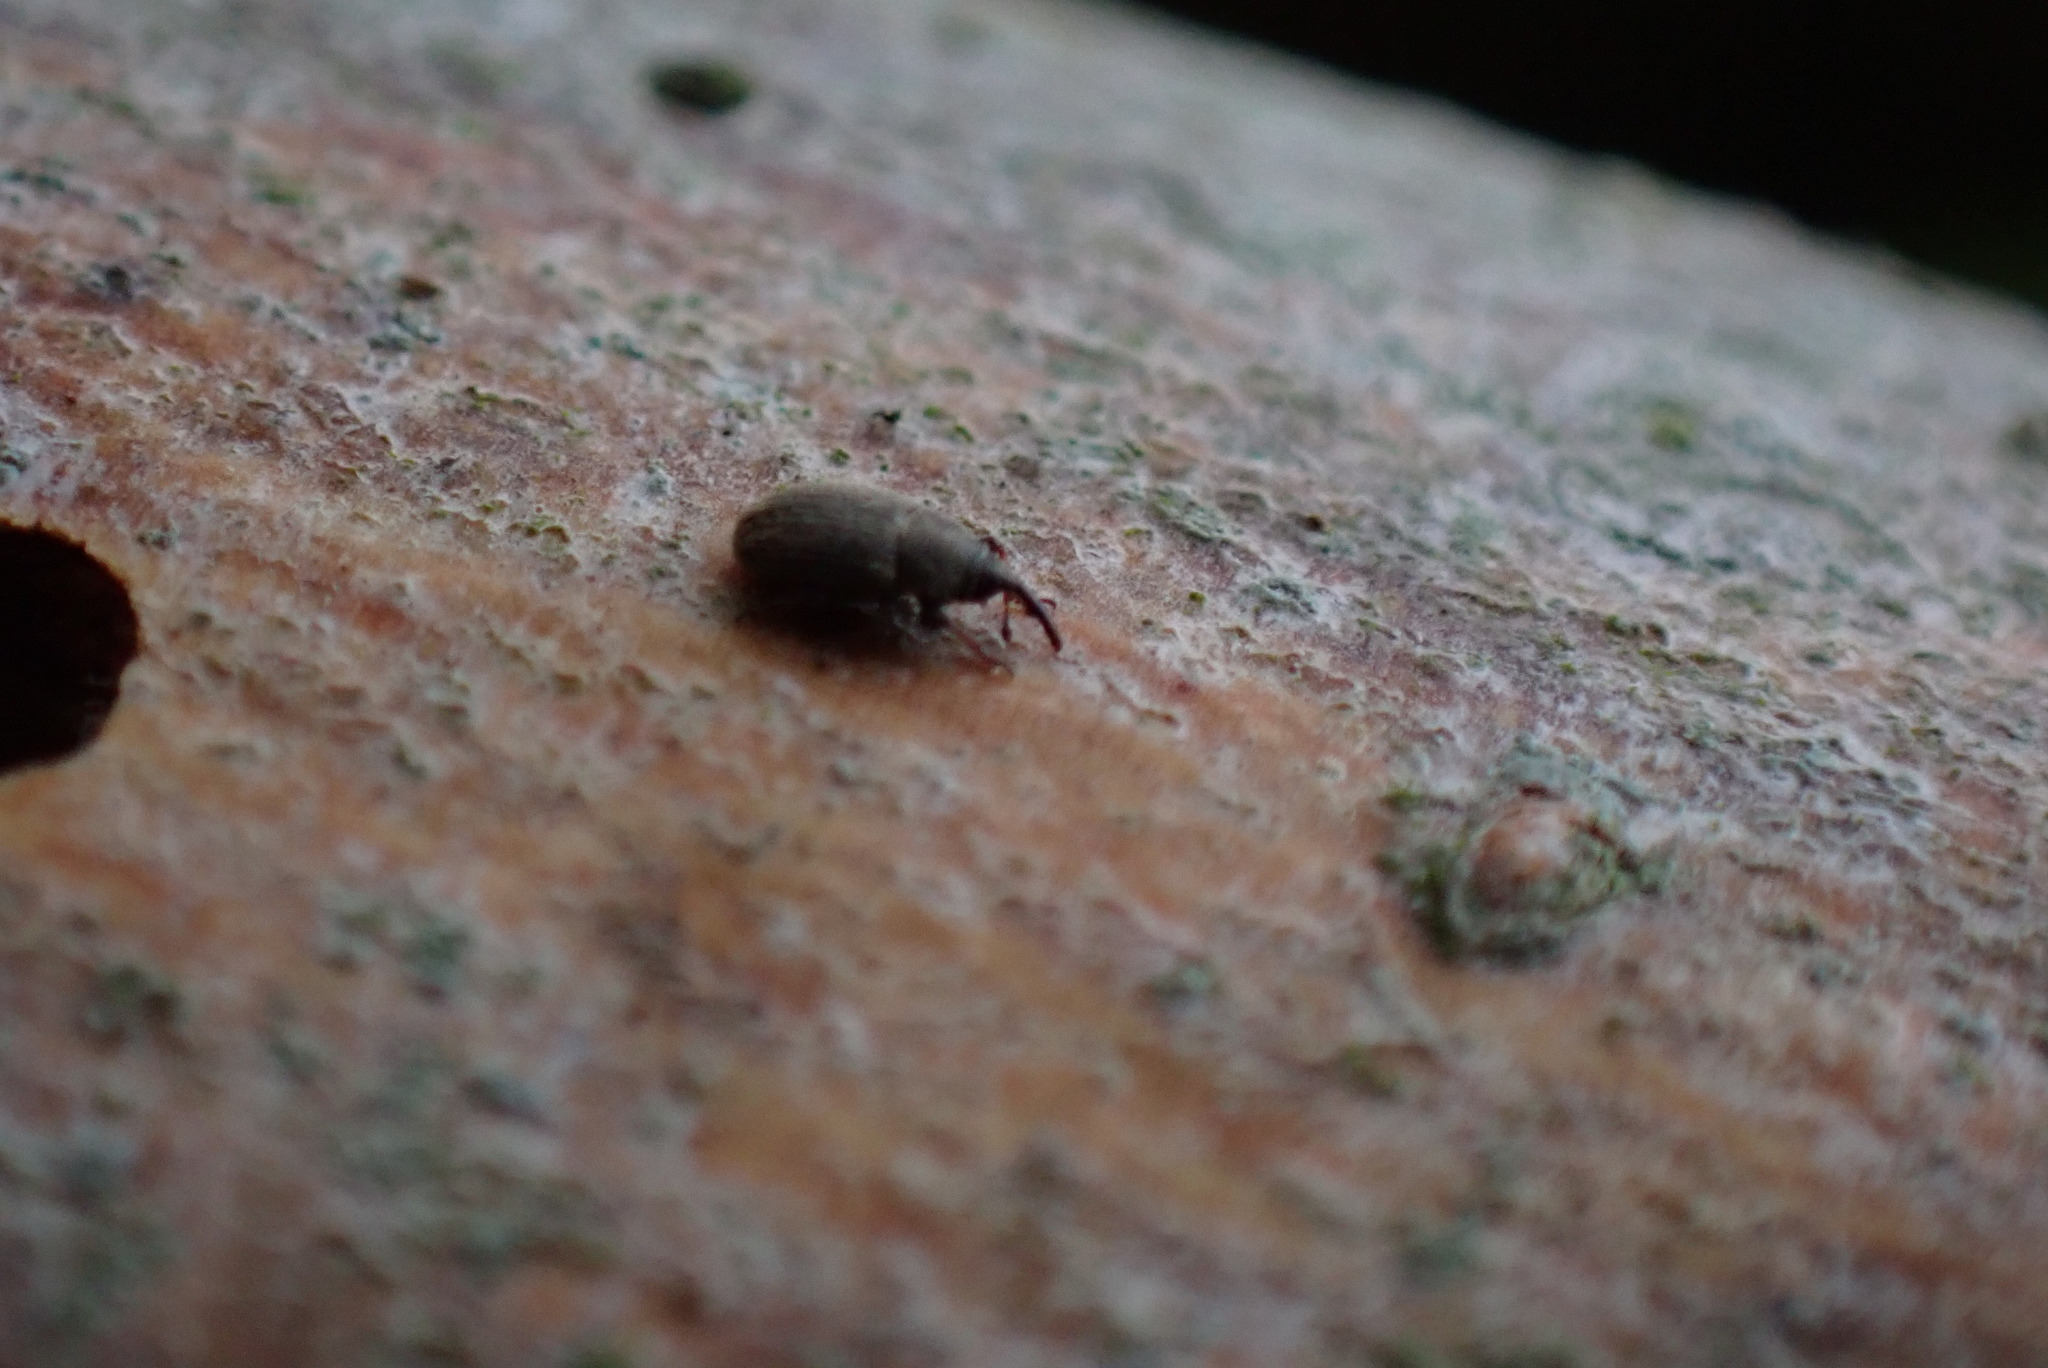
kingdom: Animalia
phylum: Arthropoda
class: Insecta
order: Coleoptera
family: Curculionidae
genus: Mecinus
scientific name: Mecinus pascuorum
